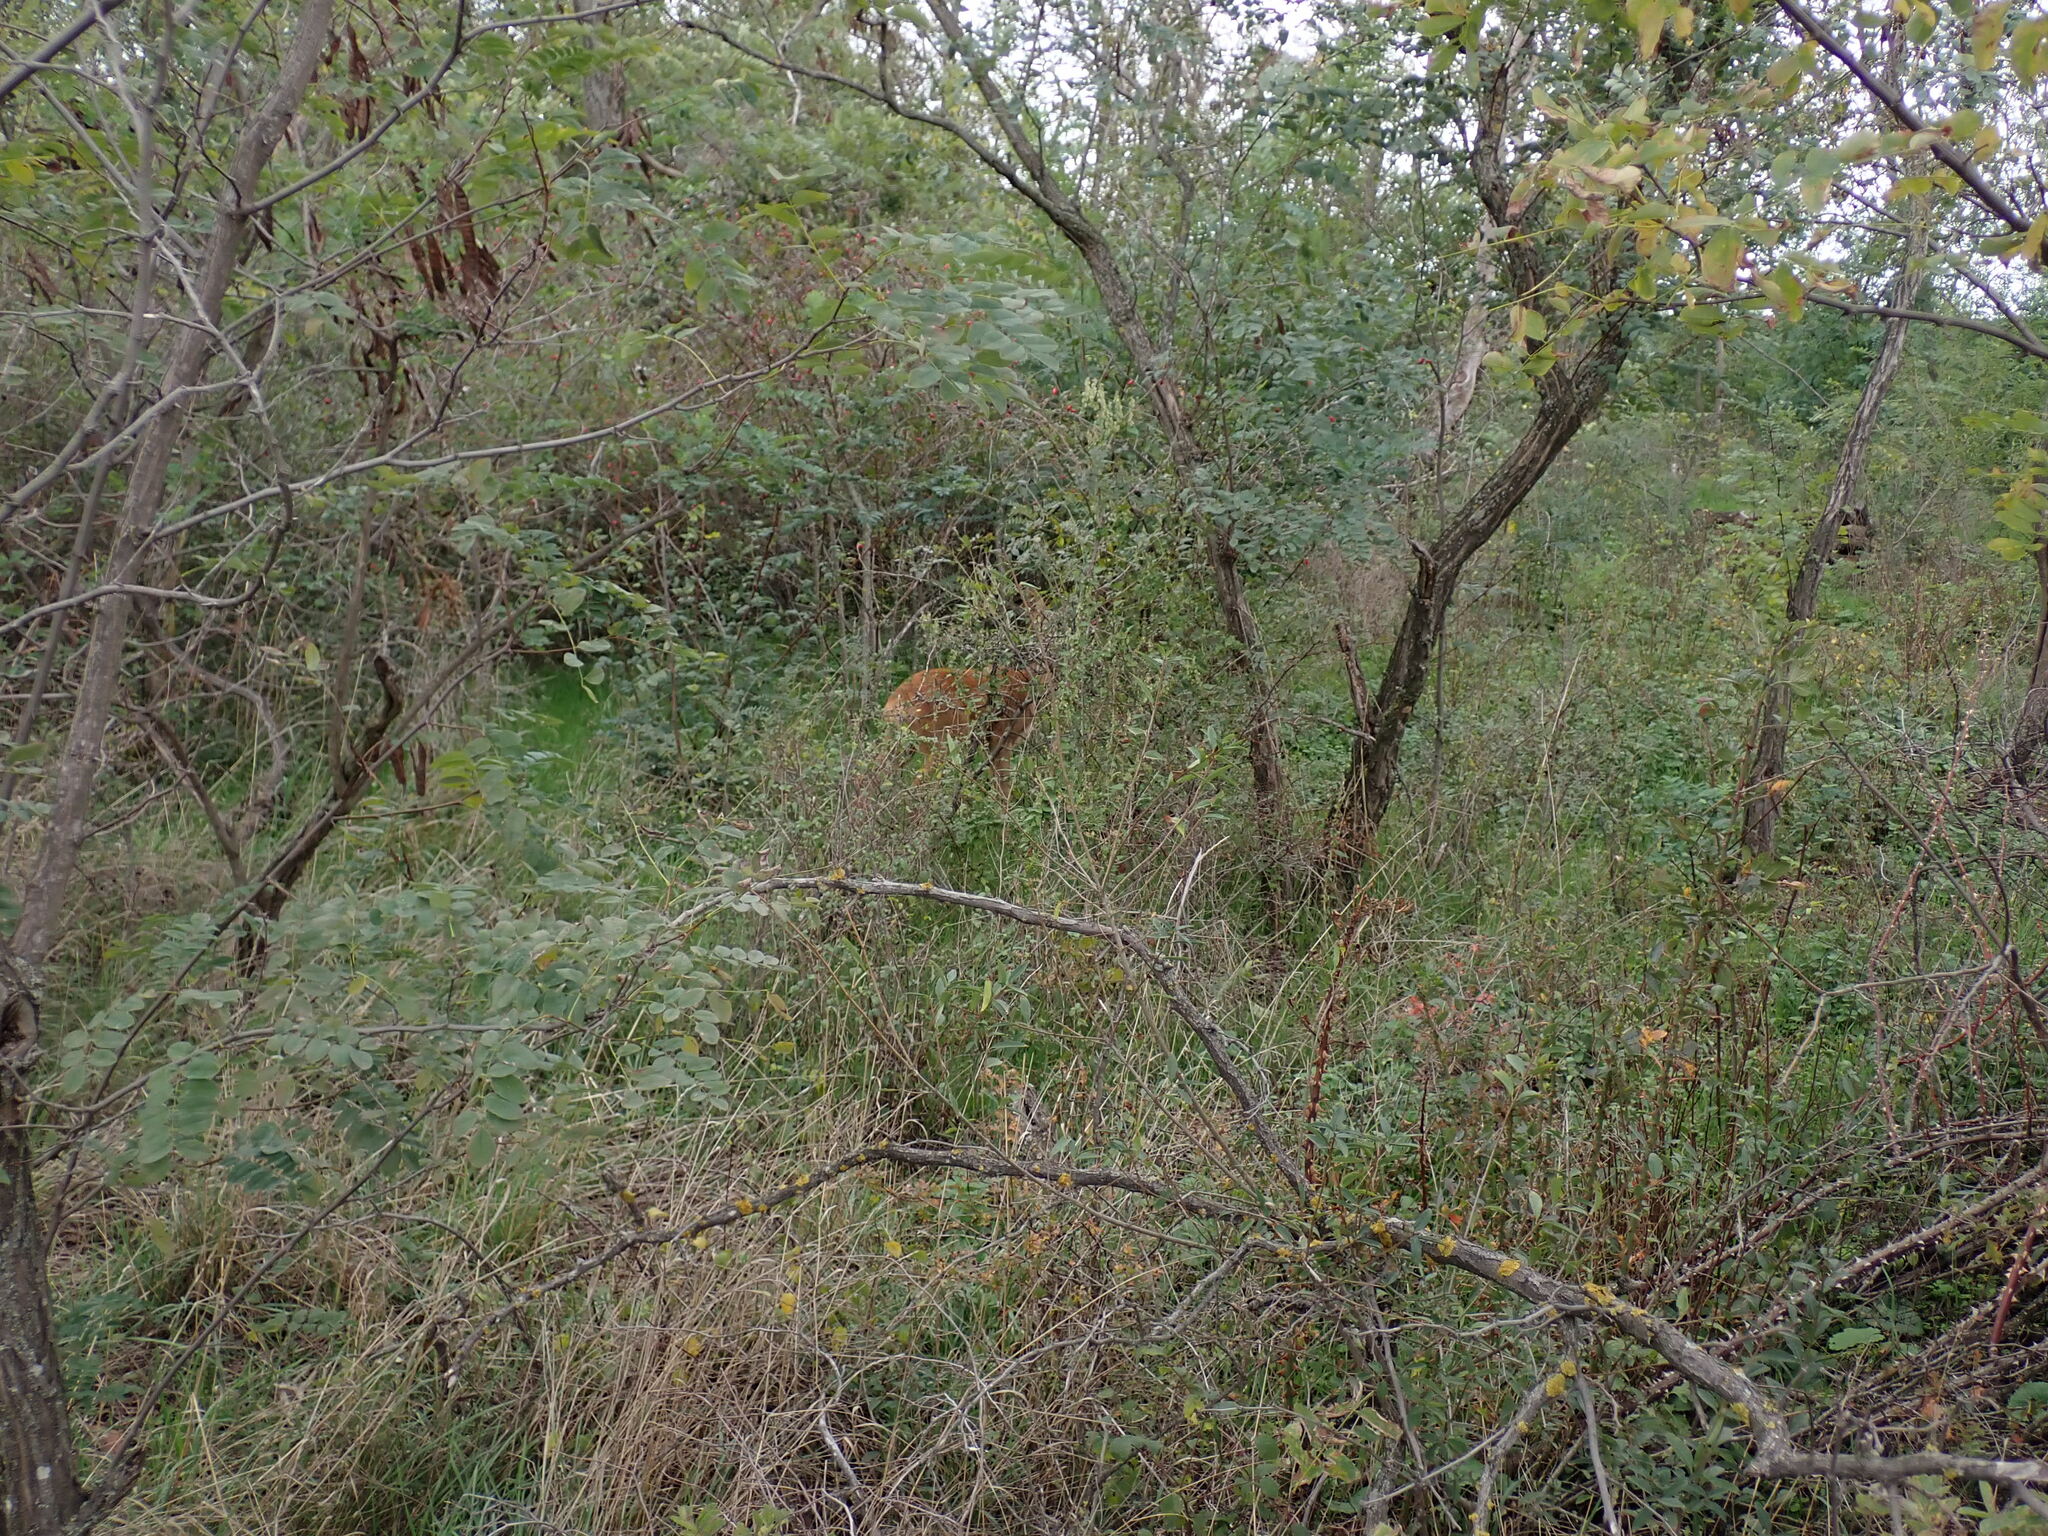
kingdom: Animalia
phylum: Chordata
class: Mammalia
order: Artiodactyla
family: Cervidae
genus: Capreolus
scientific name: Capreolus capreolus
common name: Western roe deer
